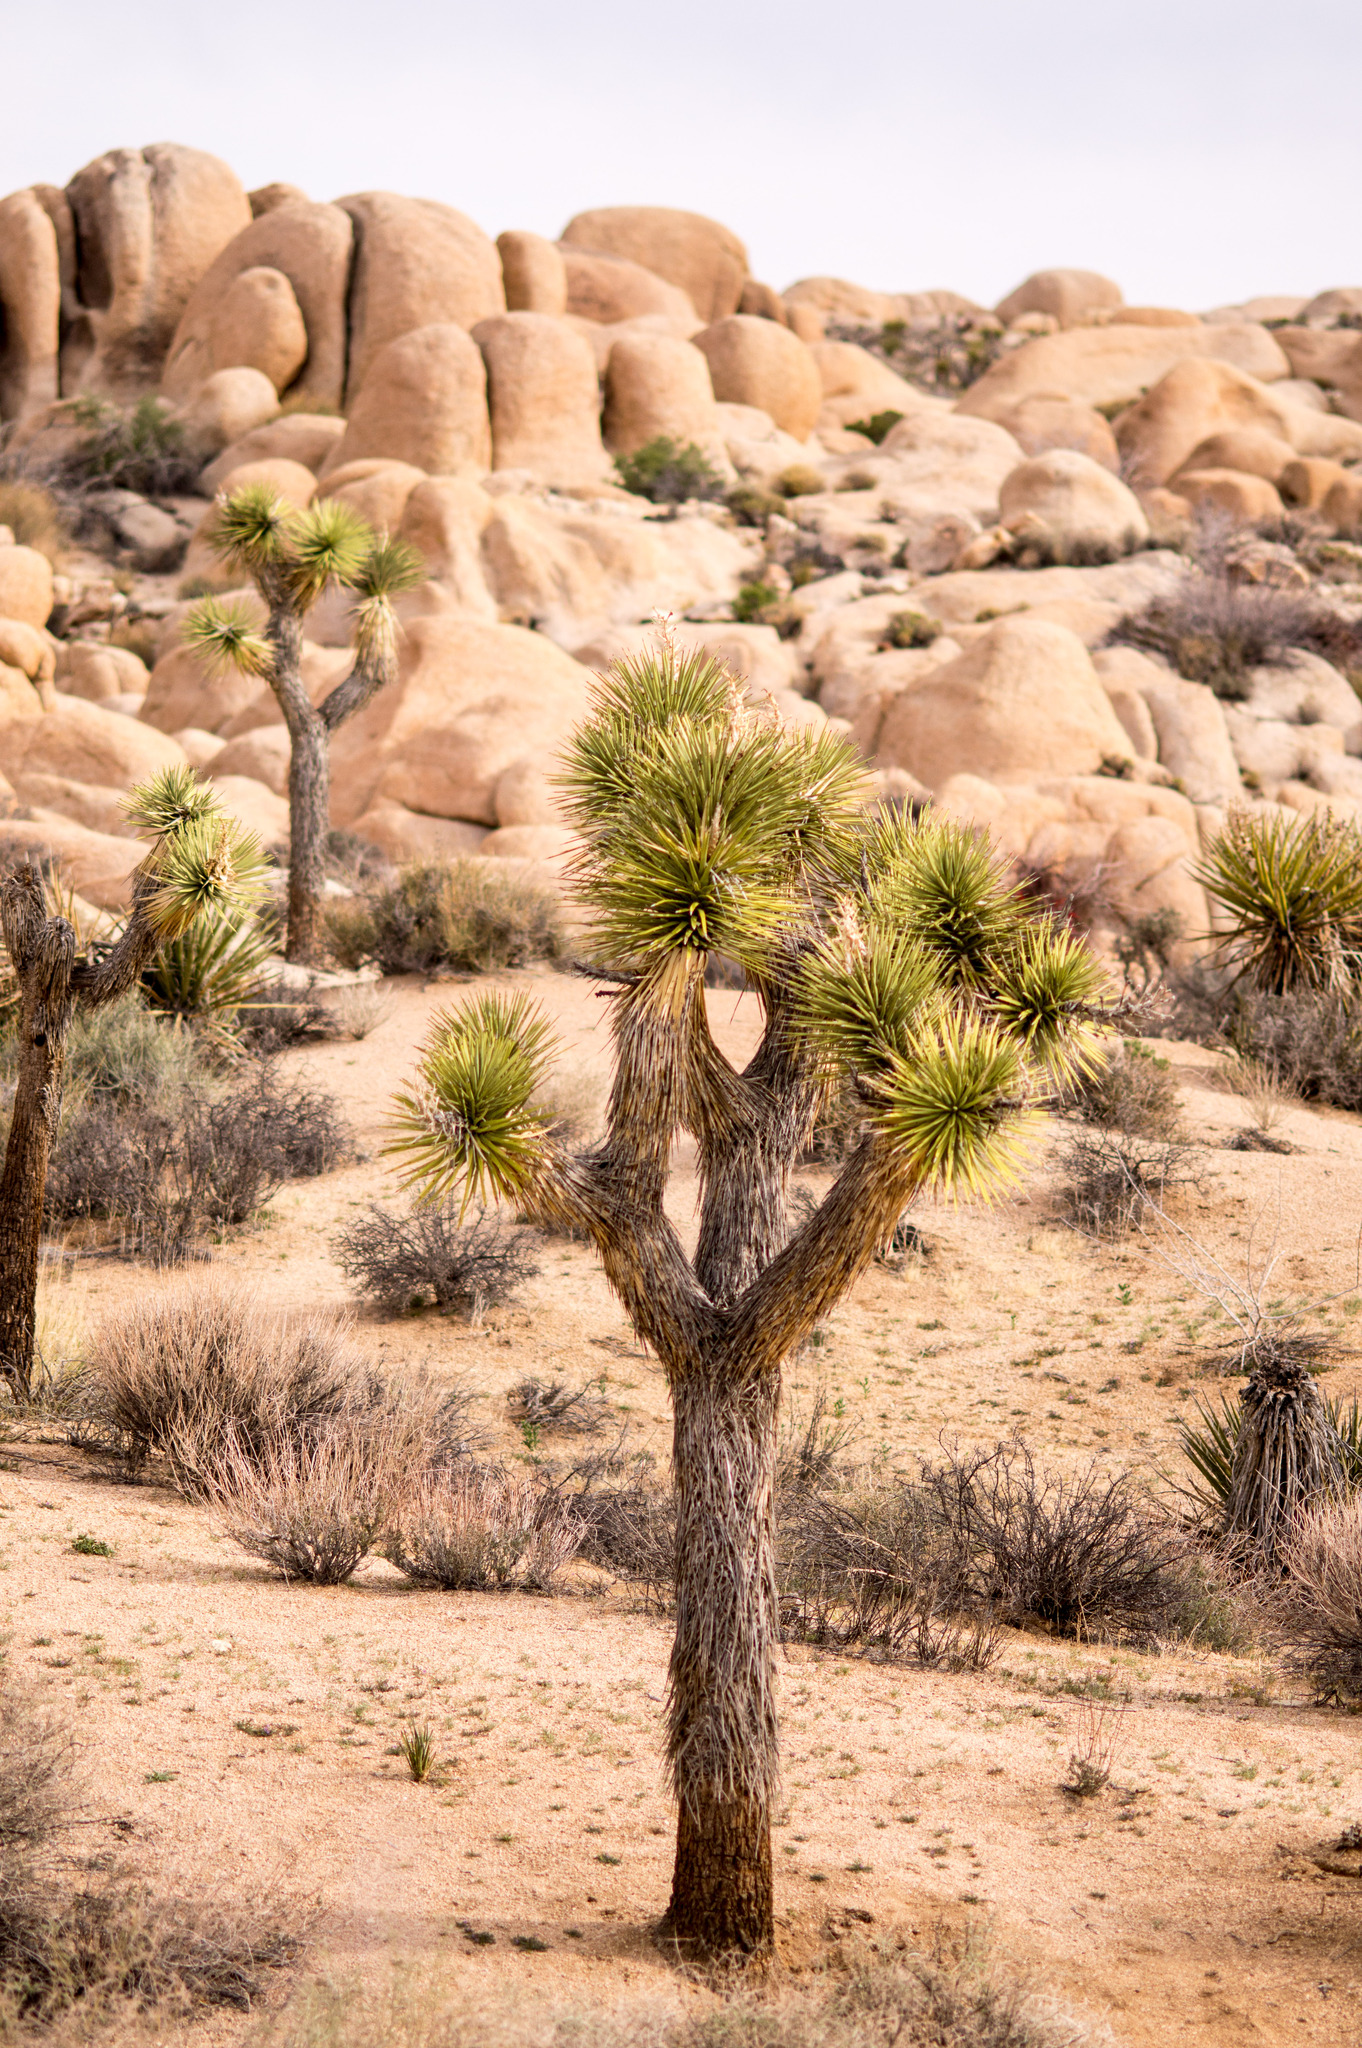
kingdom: Plantae
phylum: Tracheophyta
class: Liliopsida
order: Asparagales
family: Asparagaceae
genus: Yucca
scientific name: Yucca brevifolia
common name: Joshua tree
